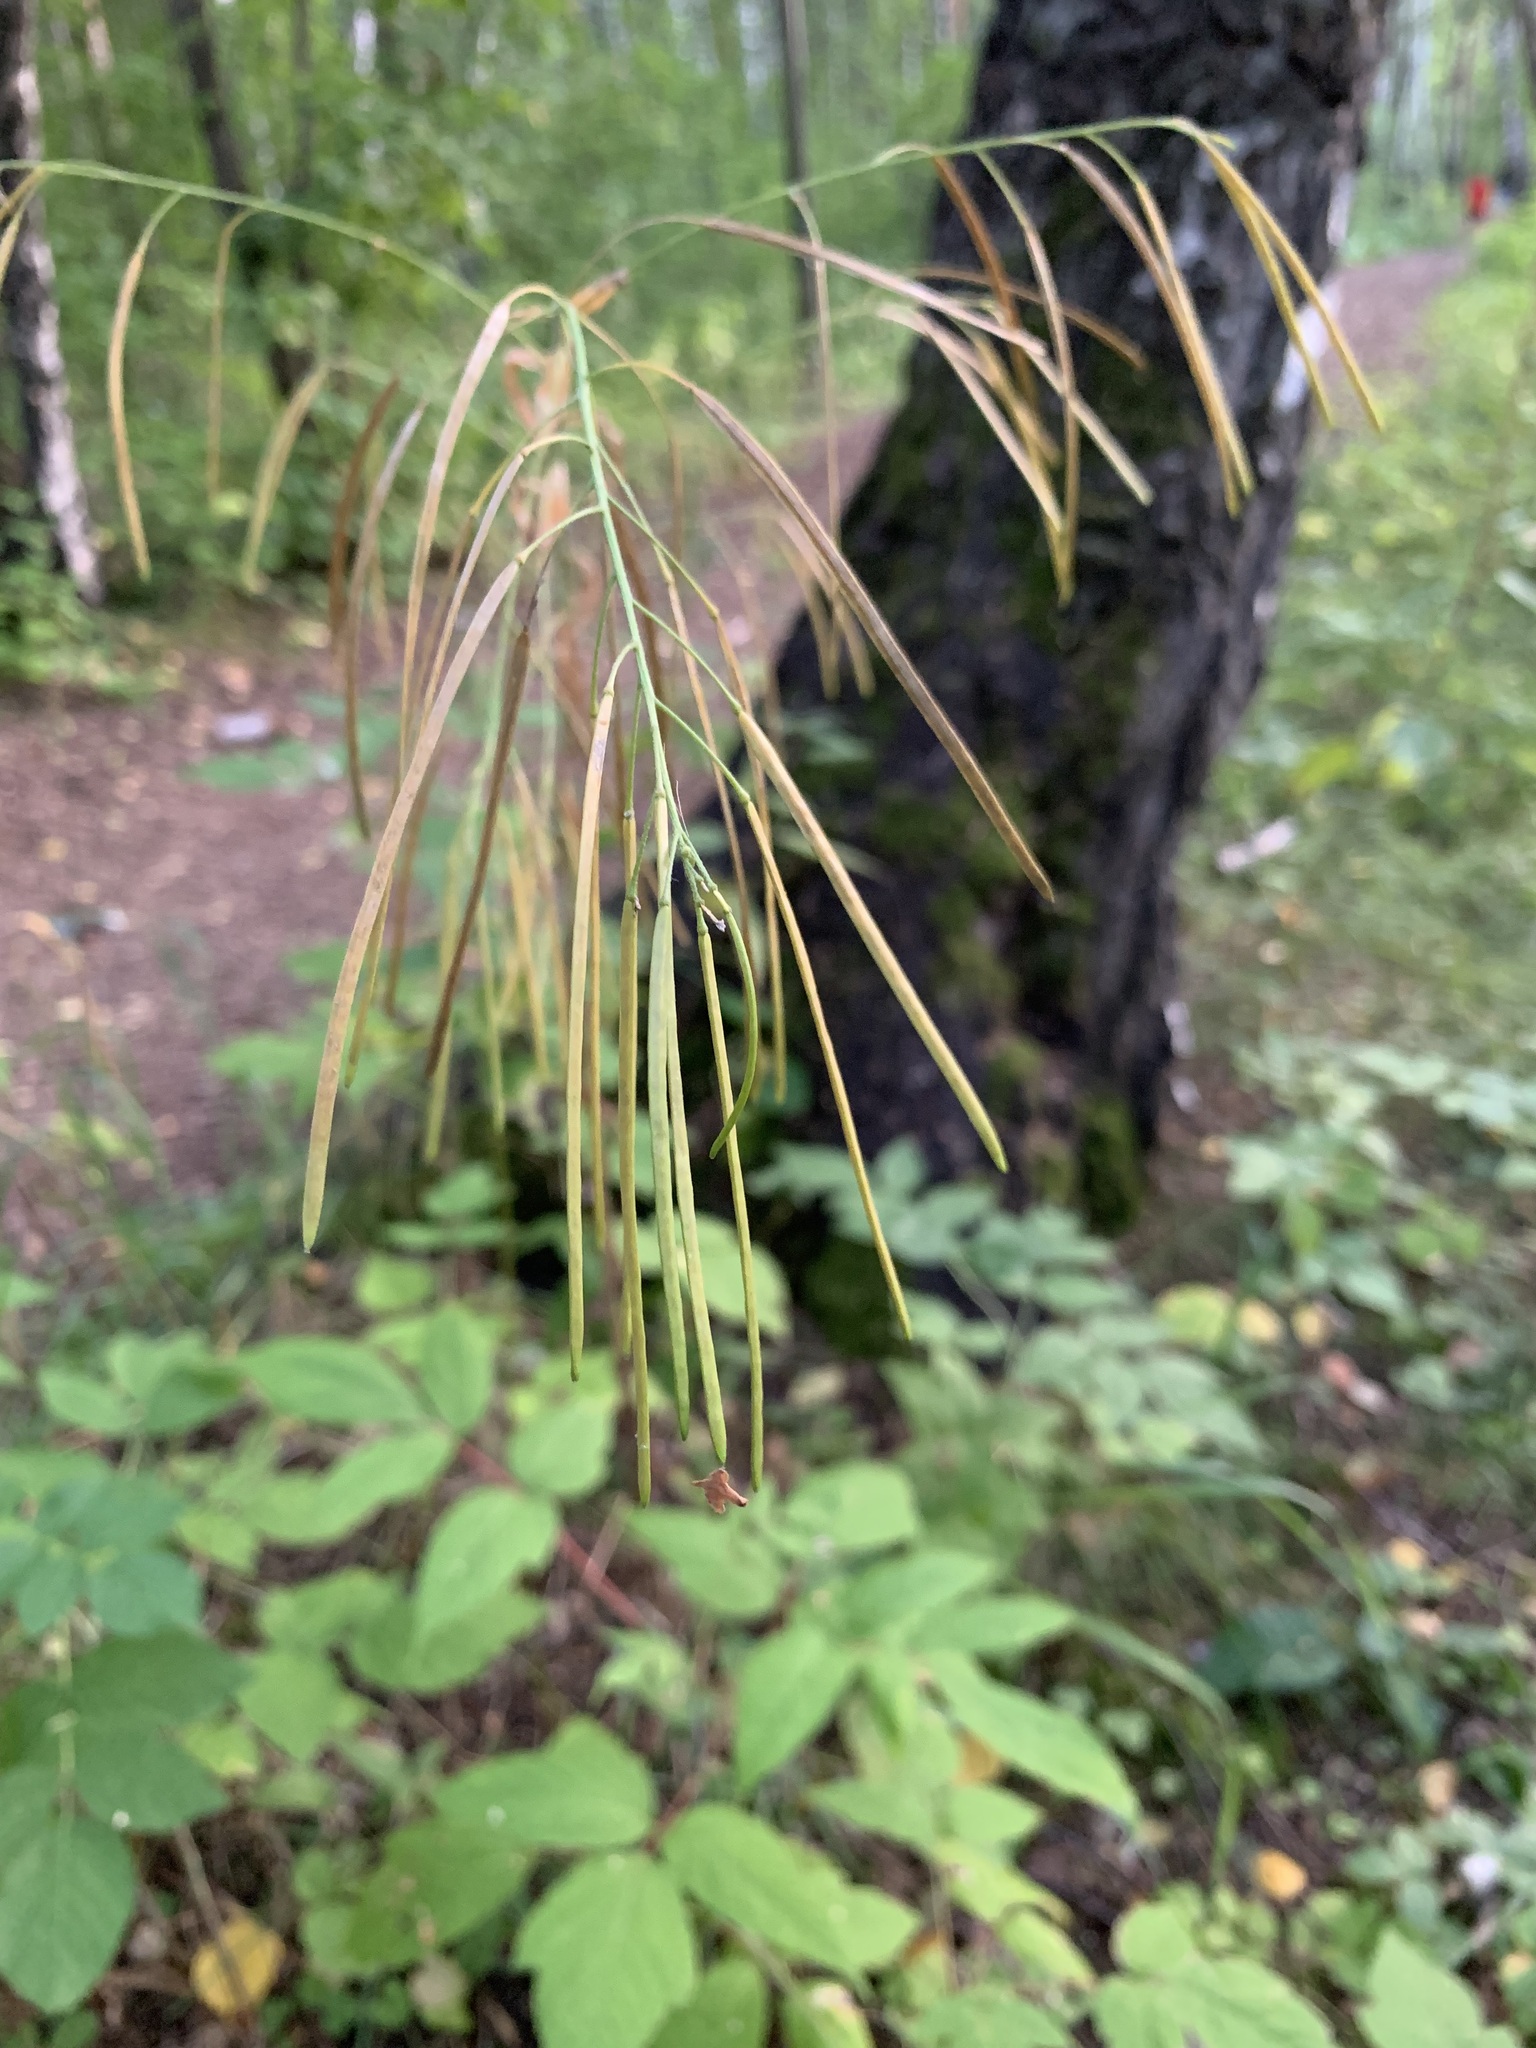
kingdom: Plantae
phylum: Tracheophyta
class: Magnoliopsida
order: Brassicales
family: Brassicaceae
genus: Catolobus
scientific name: Catolobus pendulus
